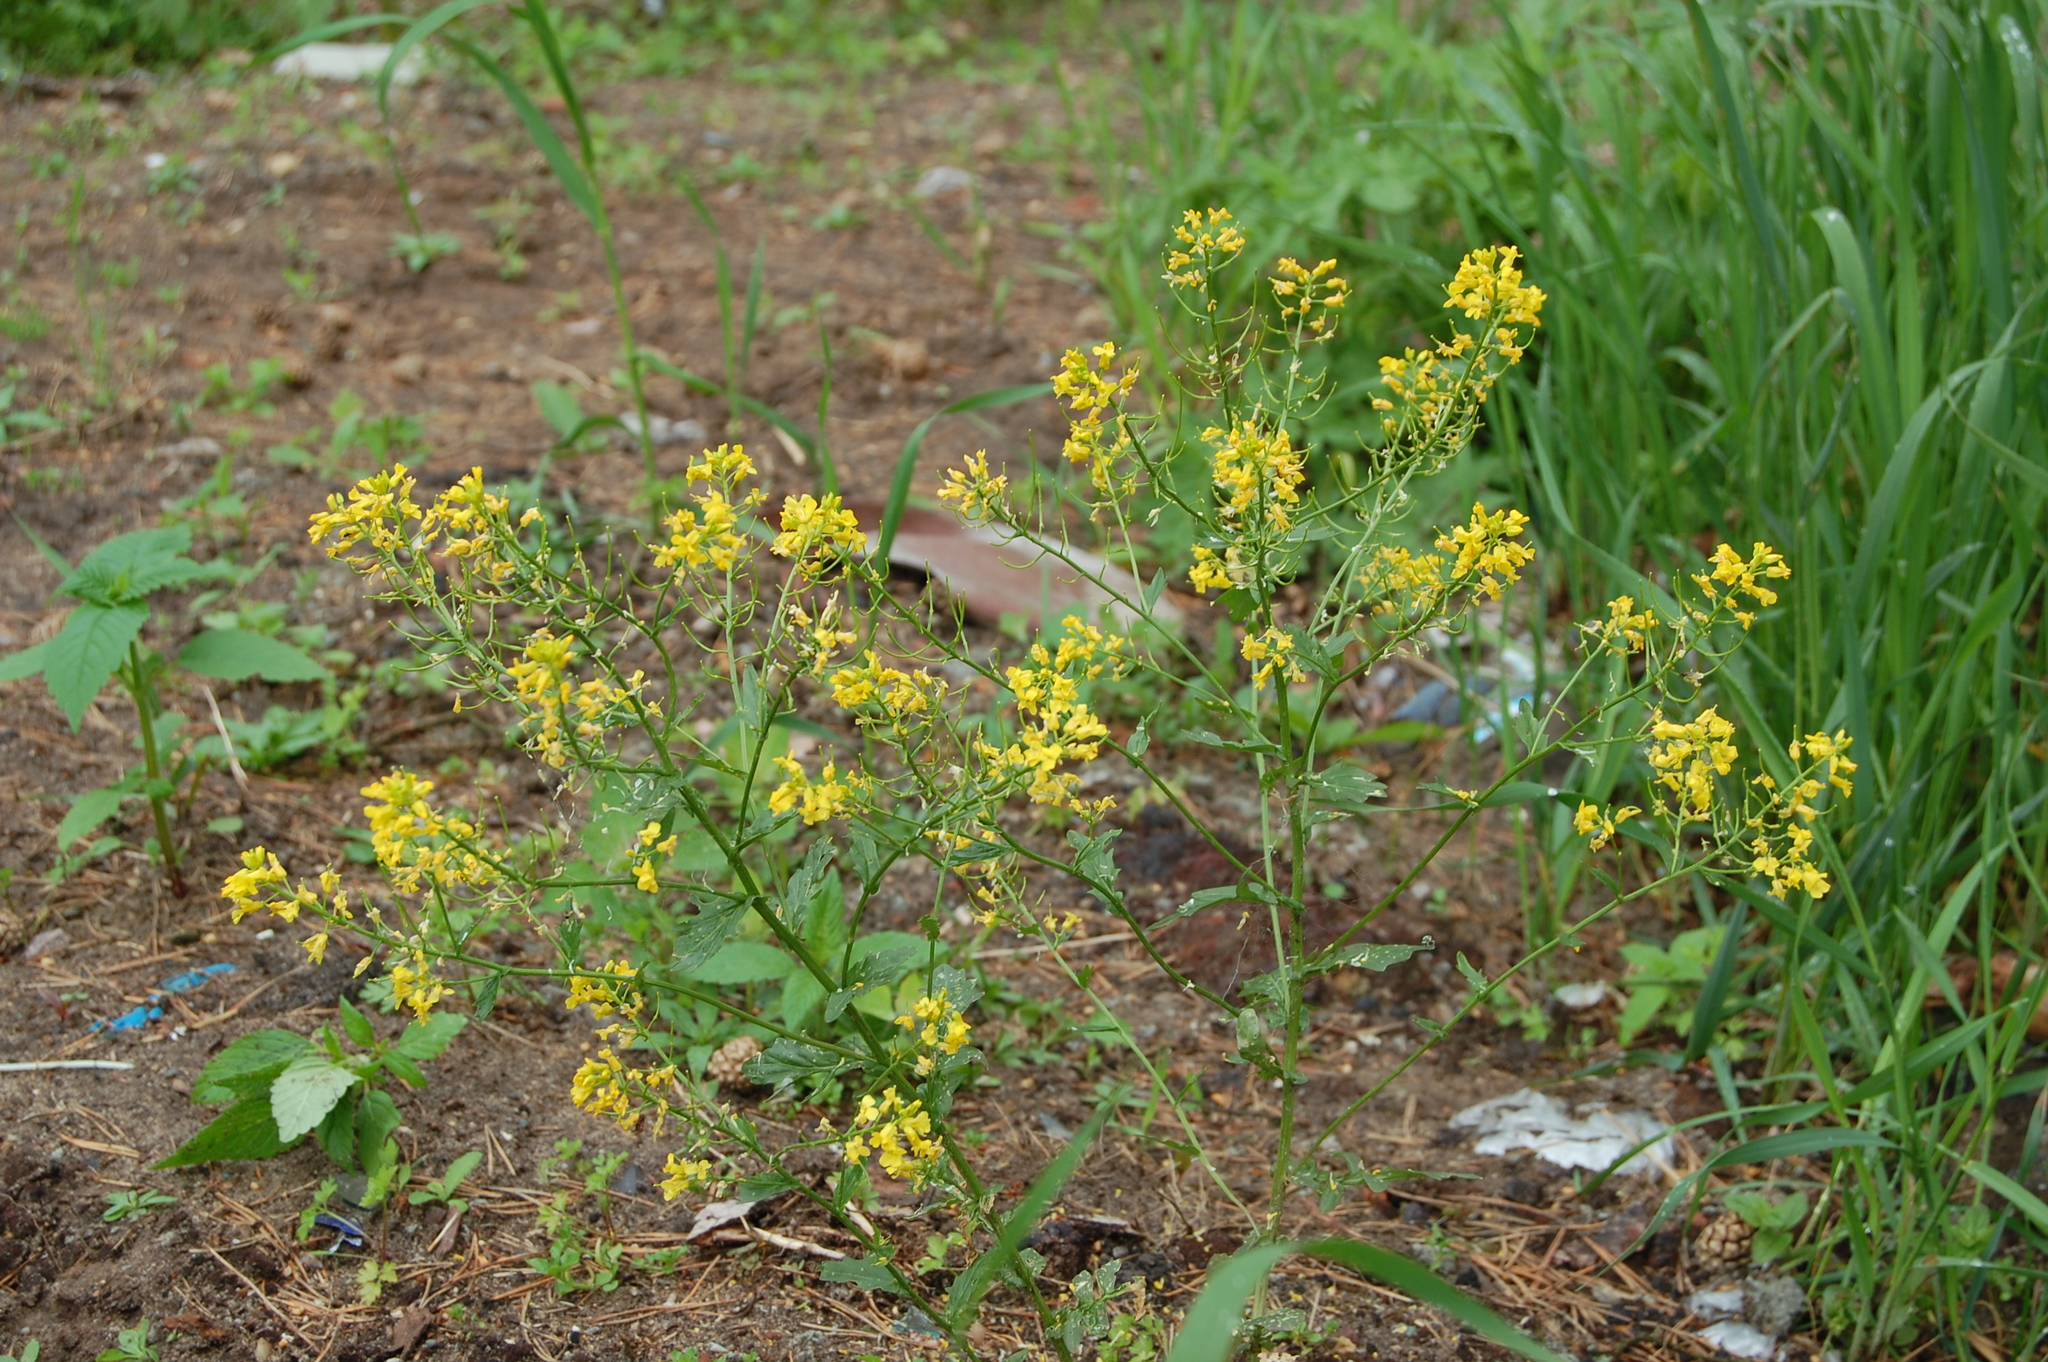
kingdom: Plantae
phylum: Tracheophyta
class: Magnoliopsida
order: Brassicales
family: Brassicaceae
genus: Barbarea
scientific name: Barbarea vulgaris
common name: Cressy-greens
